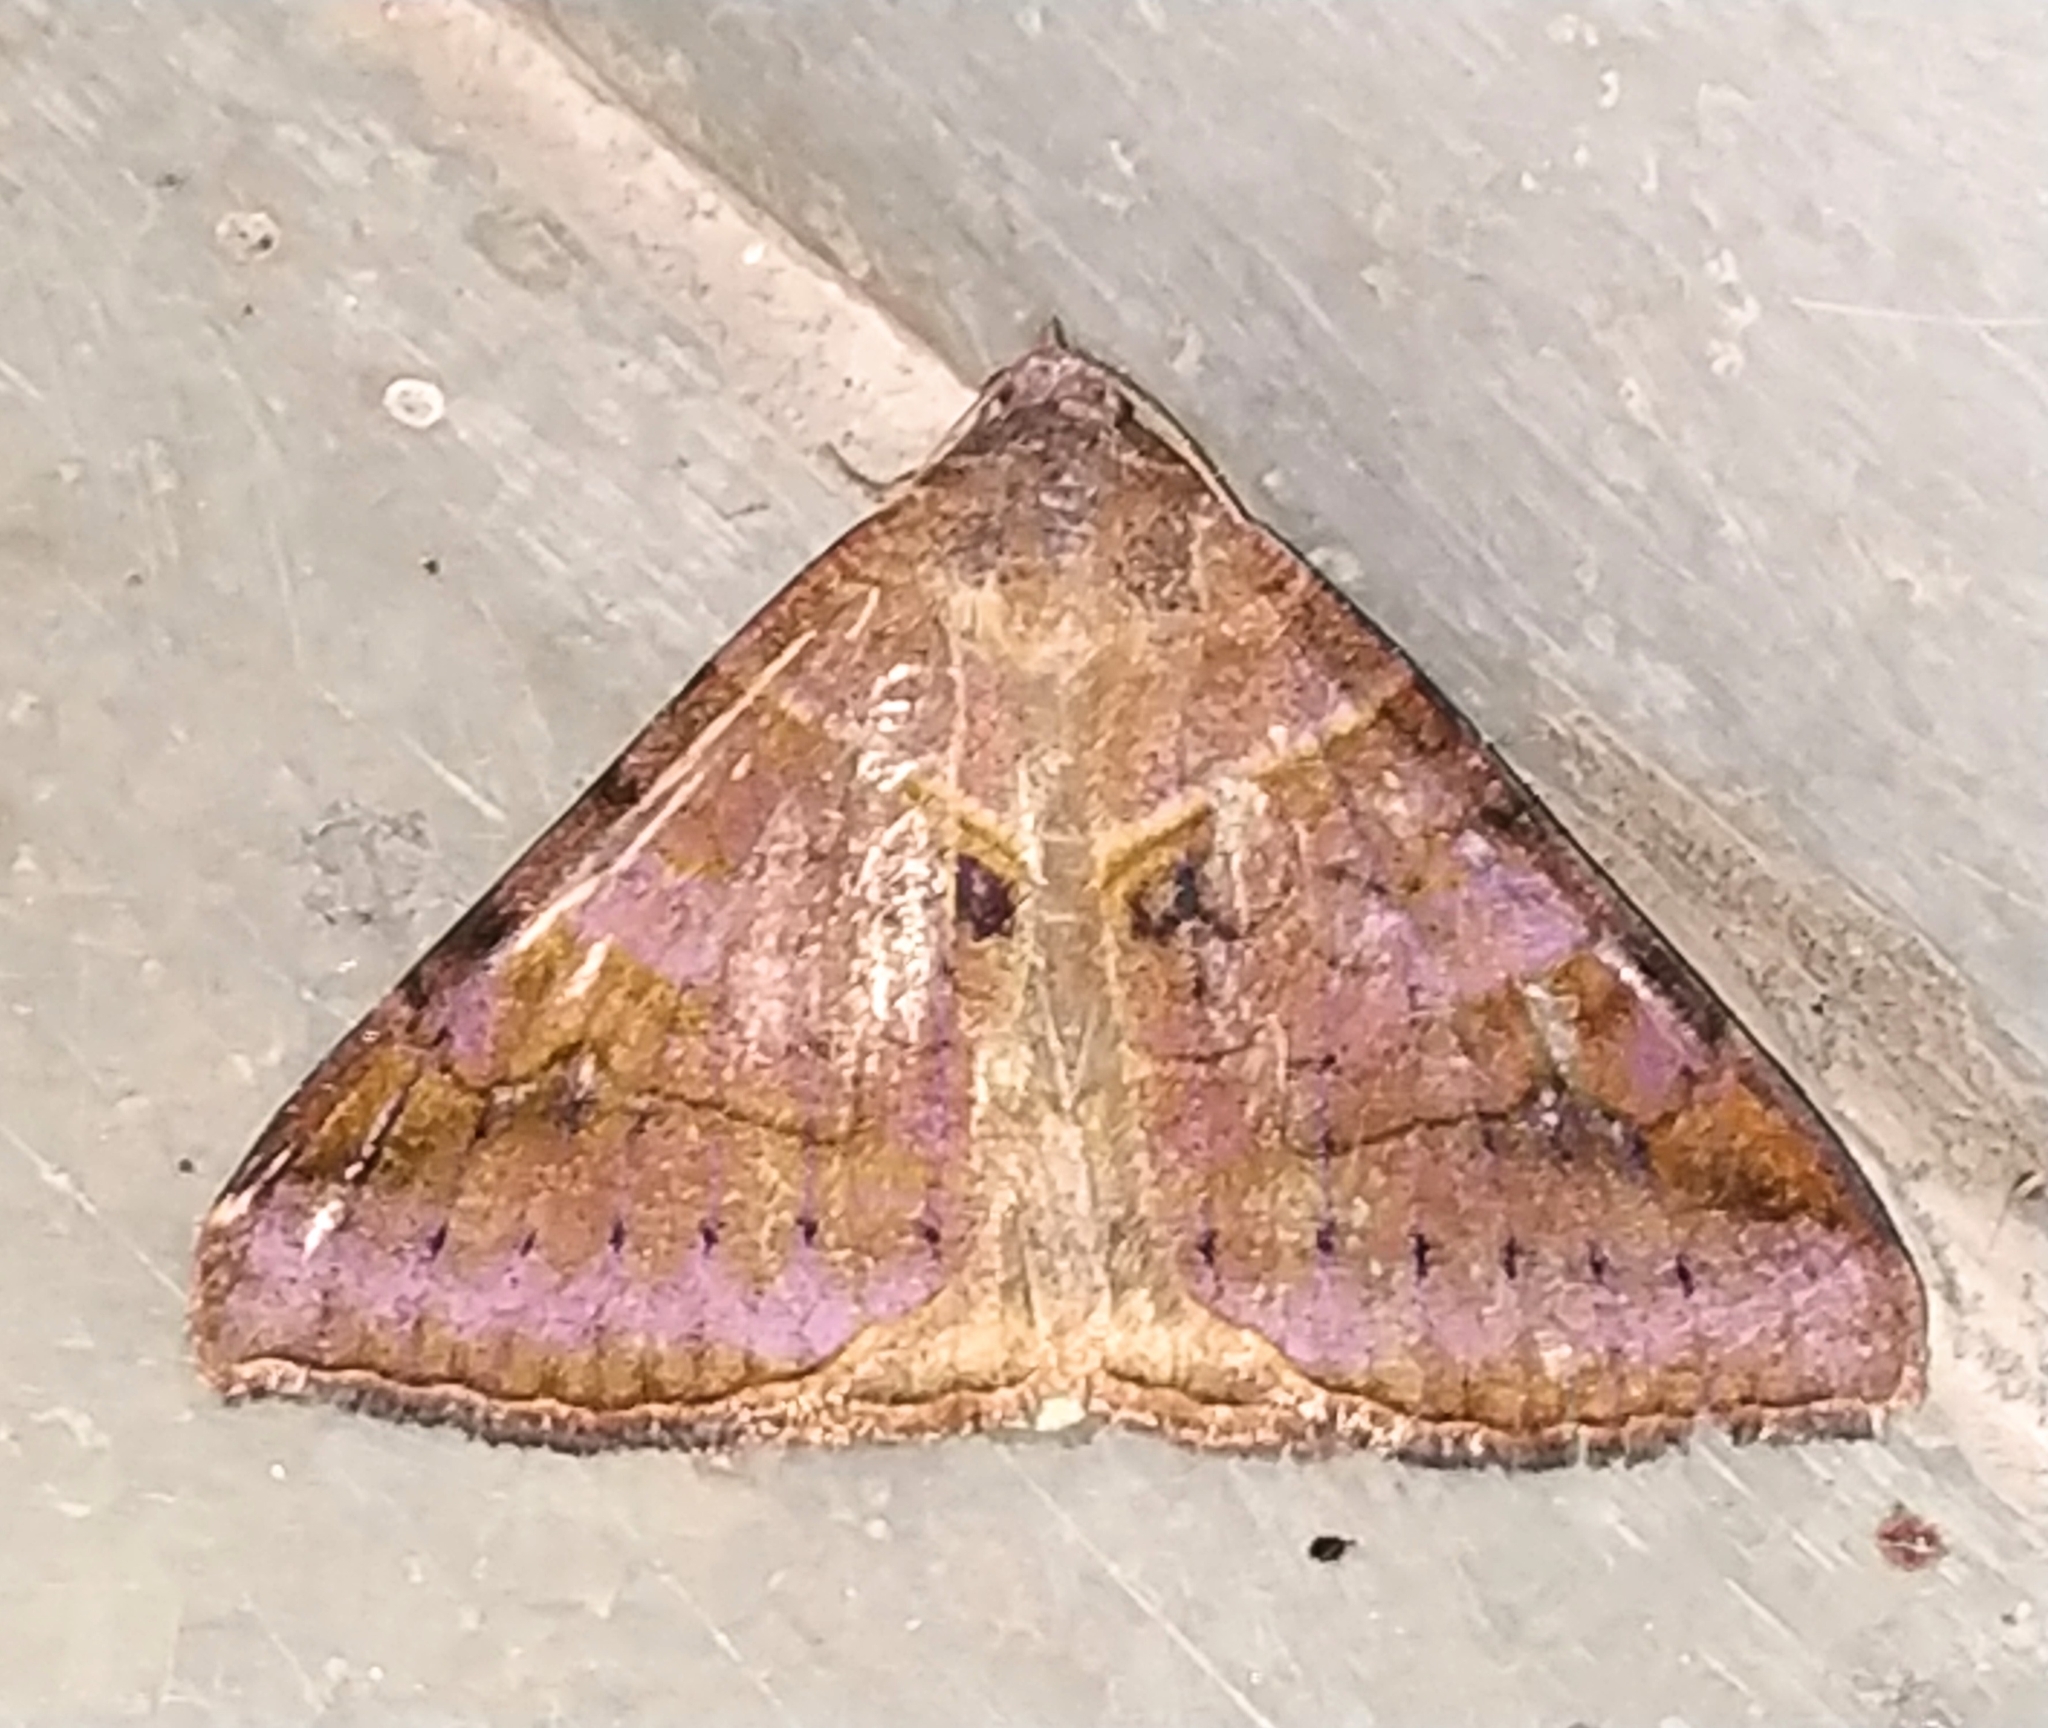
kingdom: Animalia
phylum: Arthropoda
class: Insecta
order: Lepidoptera
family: Erebidae
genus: Mocis
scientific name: Mocis undata
